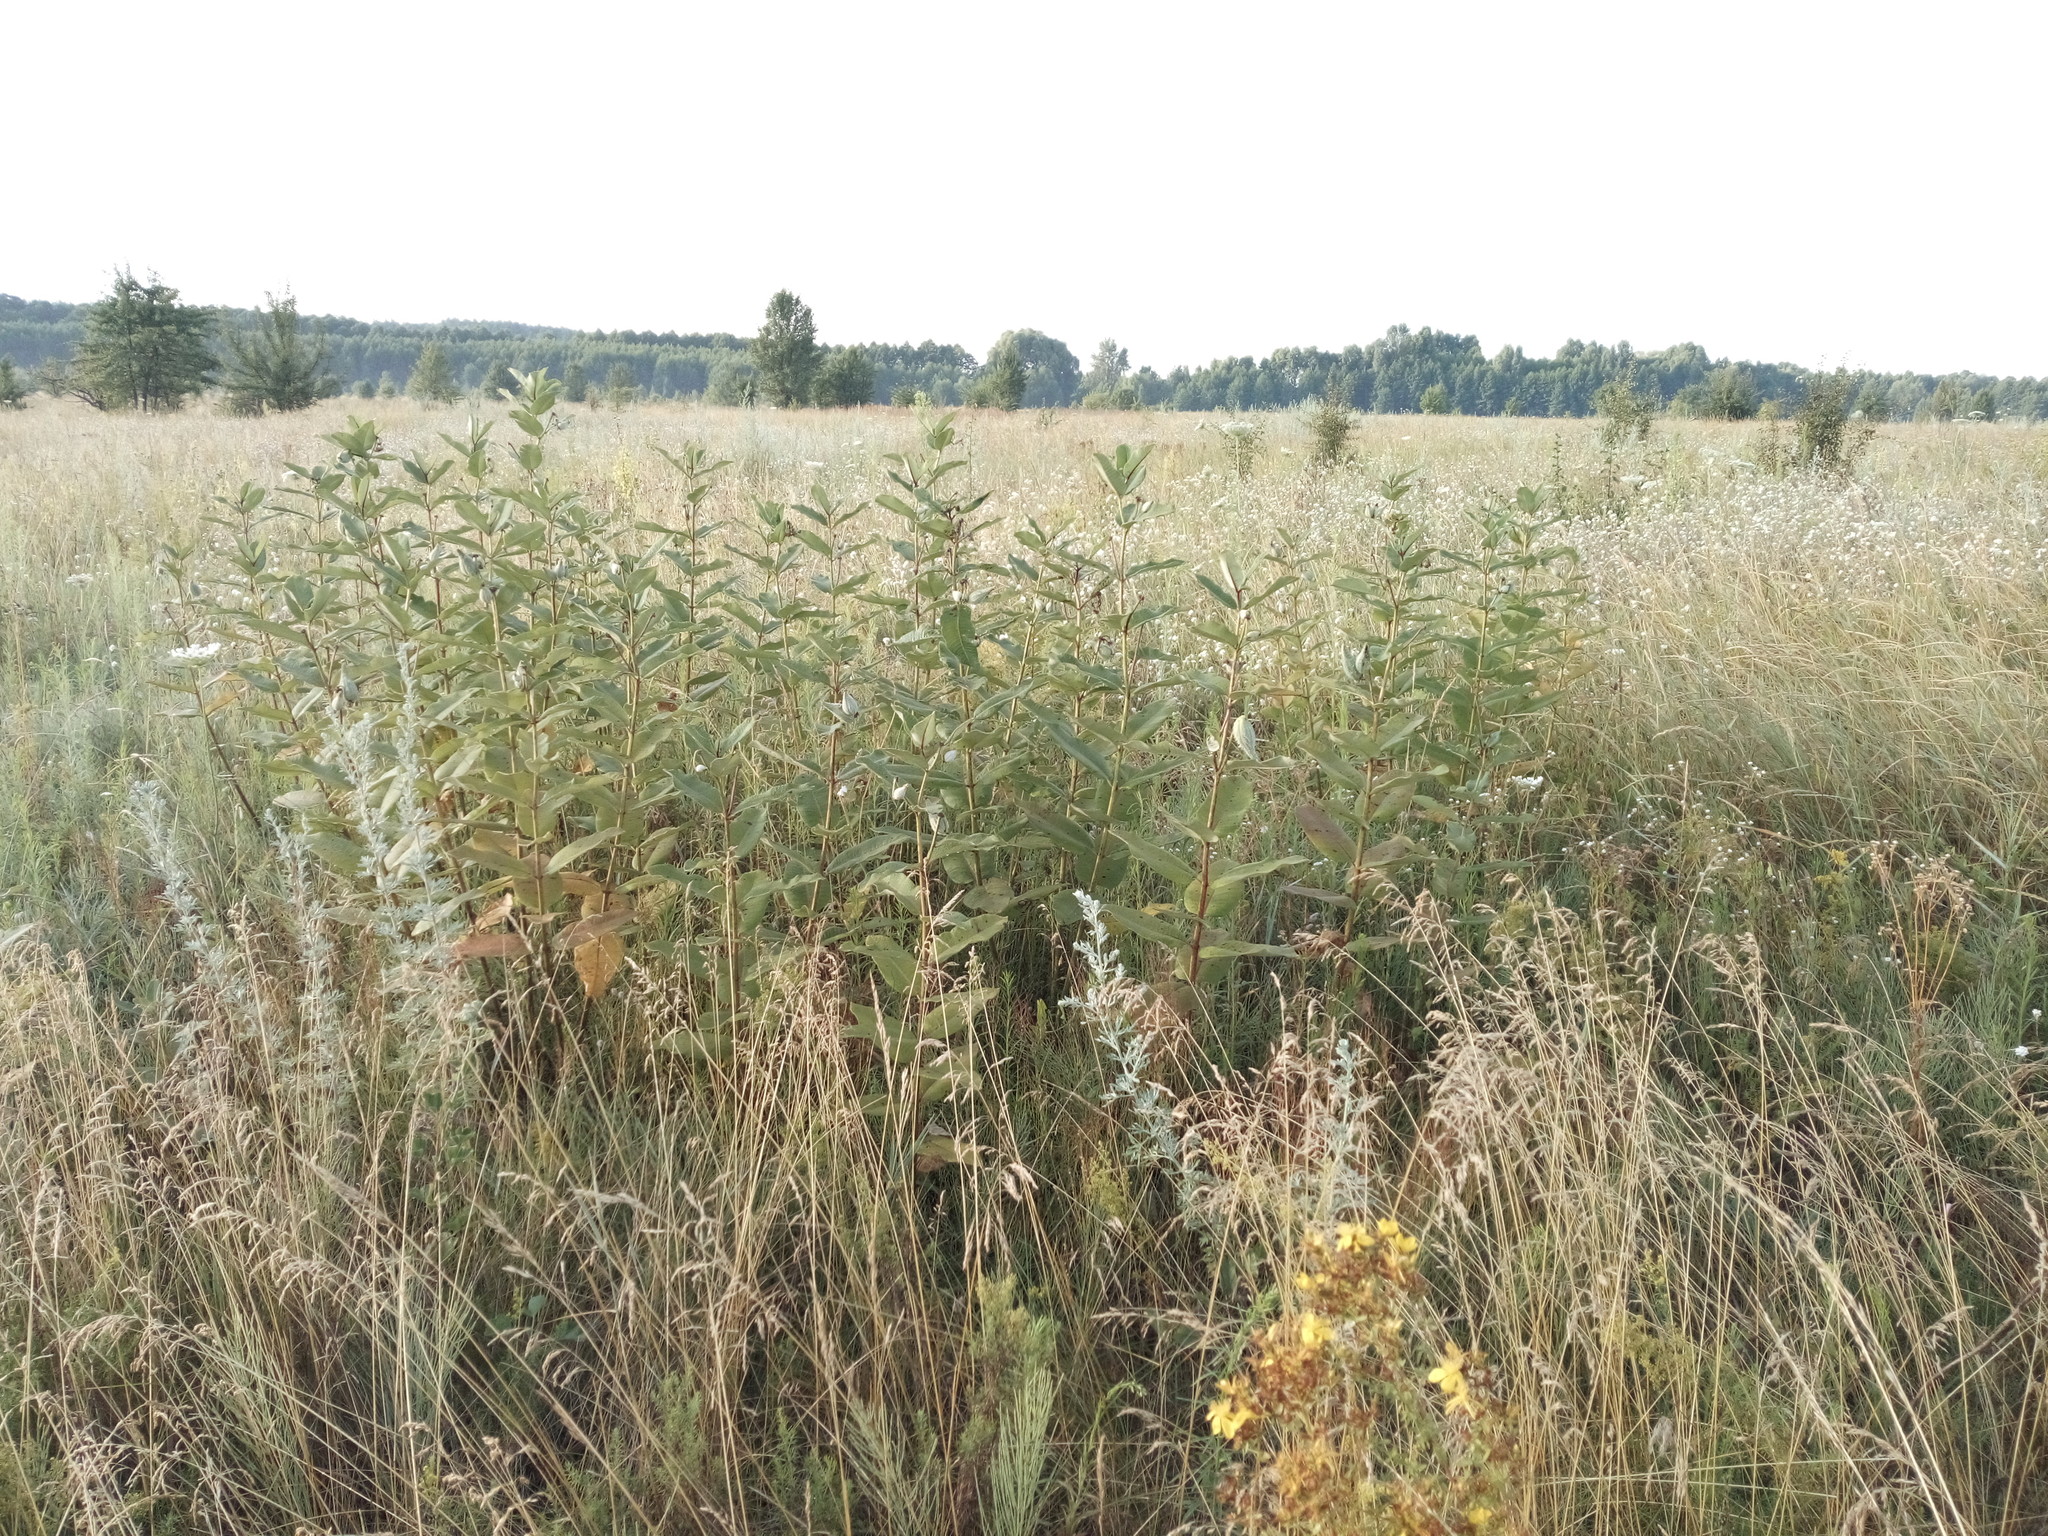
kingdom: Plantae
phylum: Tracheophyta
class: Magnoliopsida
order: Gentianales
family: Apocynaceae
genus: Asclepias
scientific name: Asclepias syriaca
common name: Common milkweed
